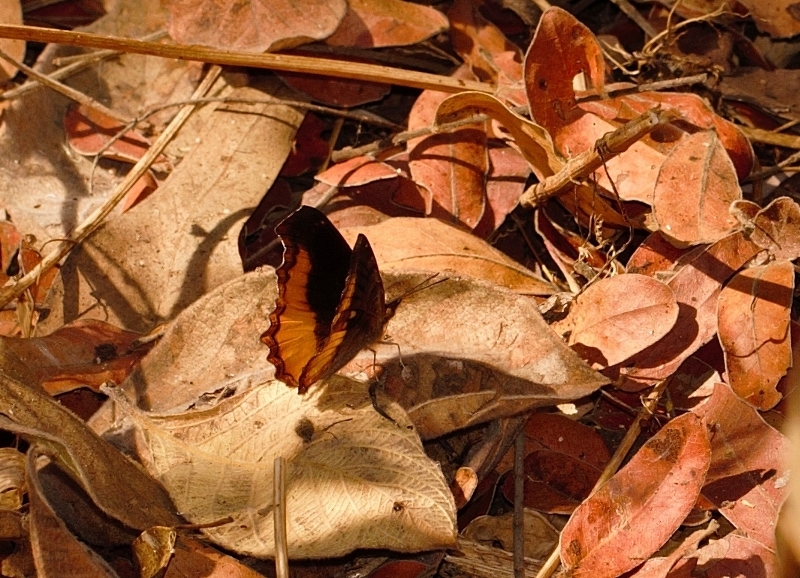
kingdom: Animalia
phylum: Arthropoda
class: Insecta
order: Lepidoptera
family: Nymphalidae
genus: Eurytela
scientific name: Eurytela dryope
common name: Golden piper
